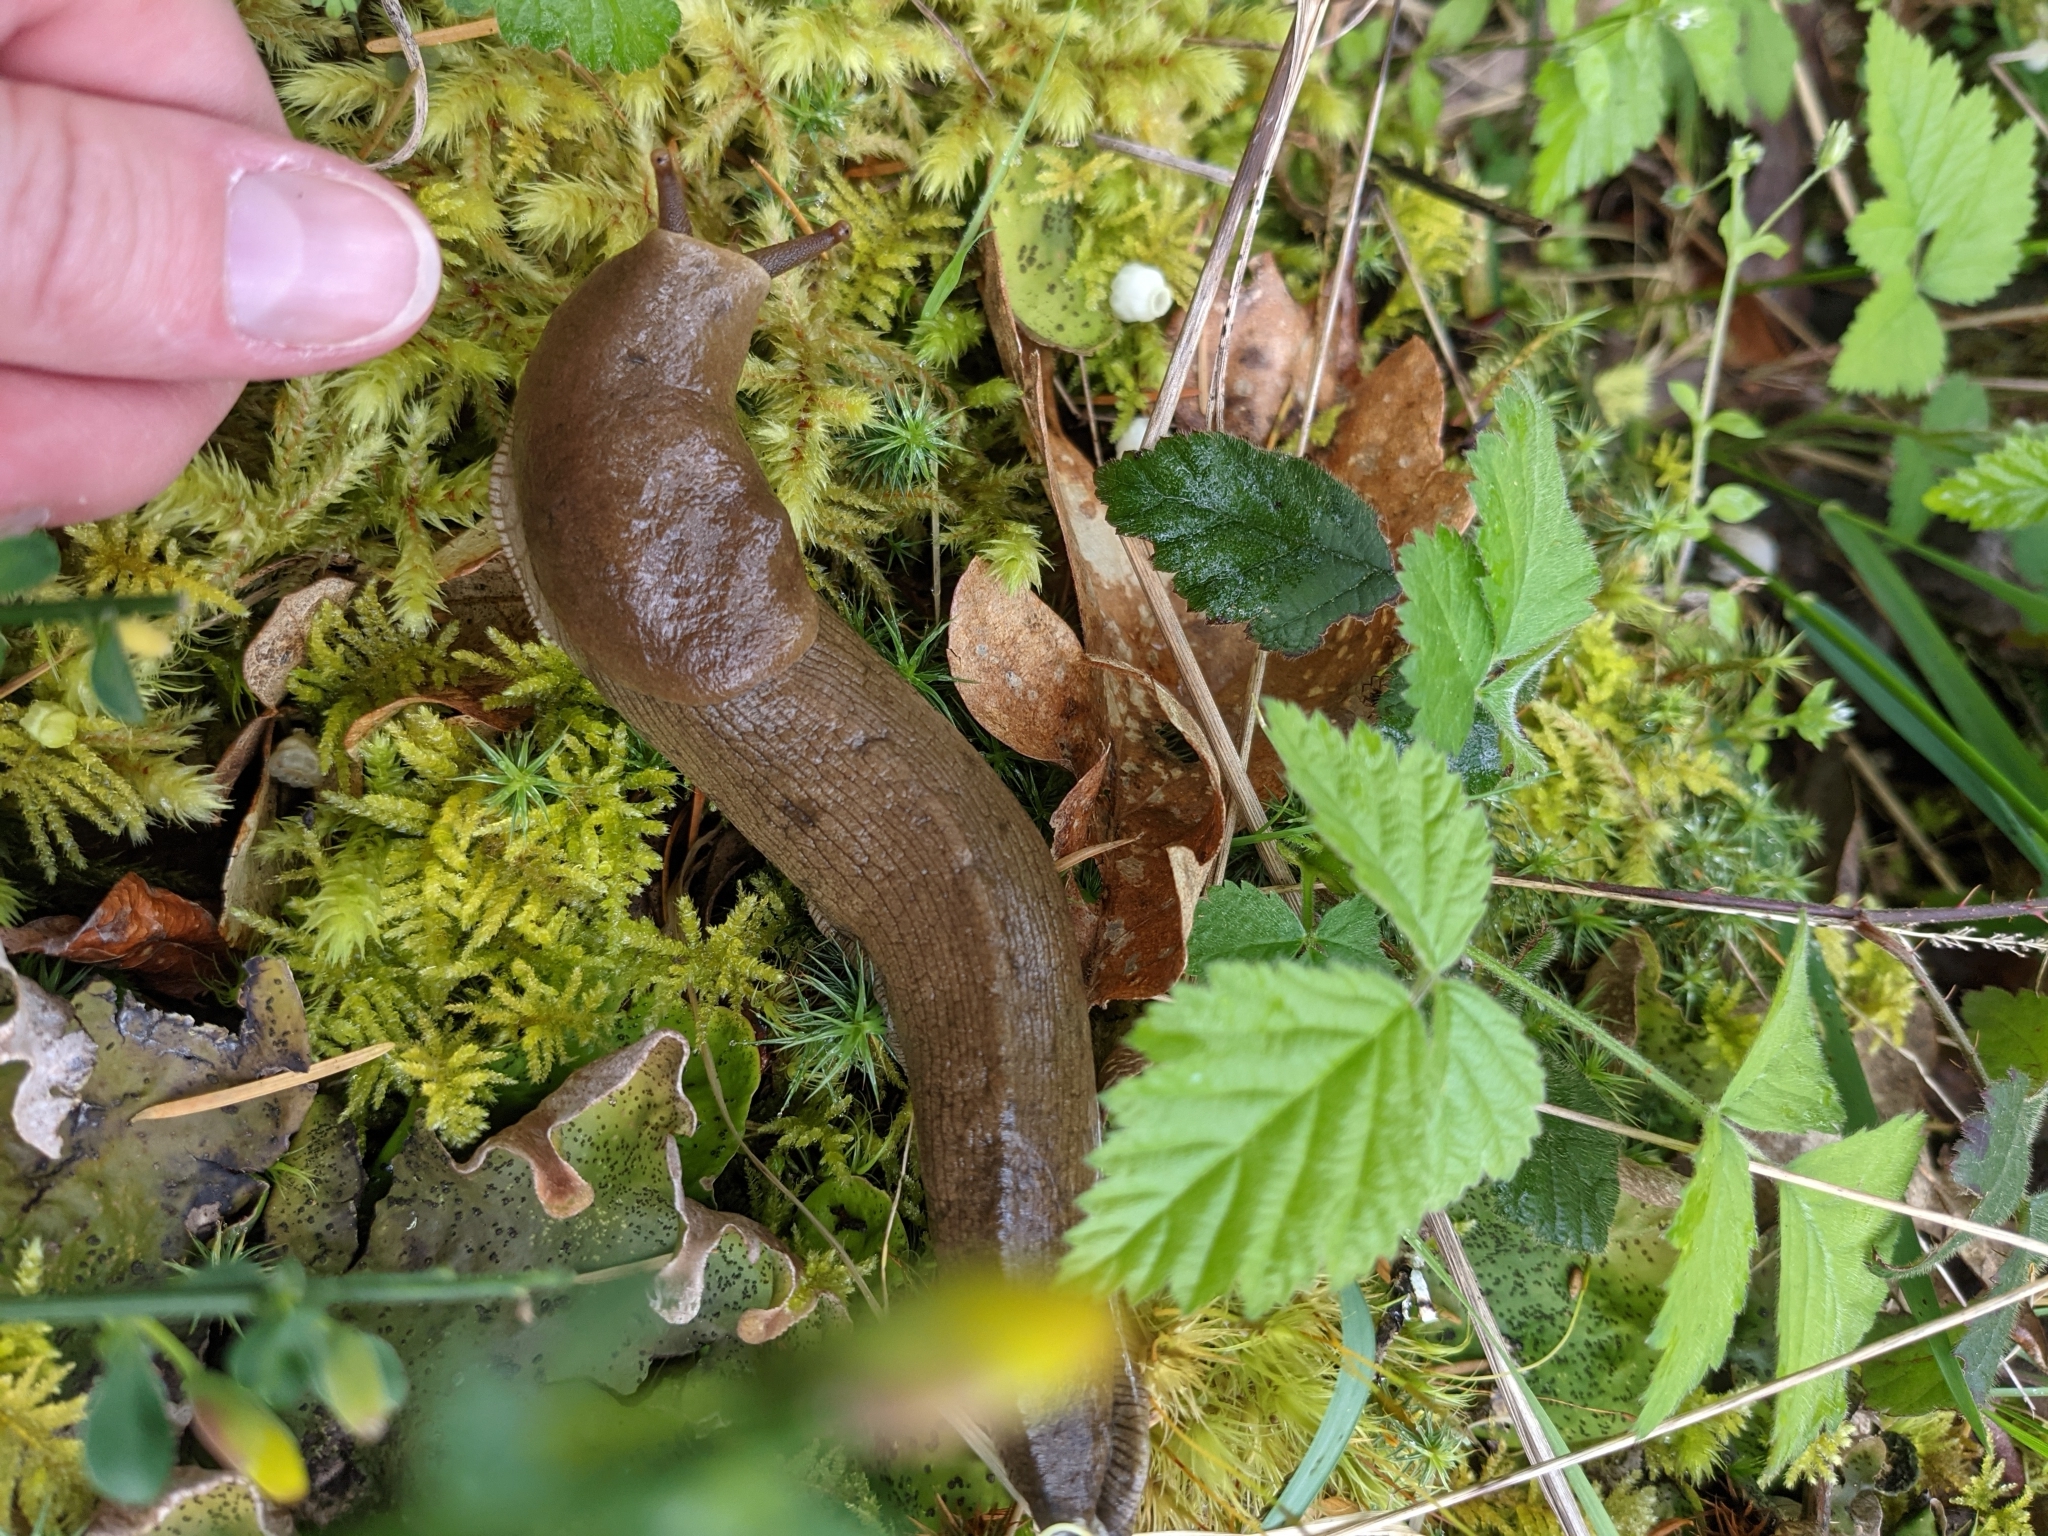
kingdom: Animalia
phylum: Mollusca
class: Gastropoda
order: Stylommatophora
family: Ariolimacidae
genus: Ariolimax
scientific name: Ariolimax columbianus
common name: Pacific banana slug
